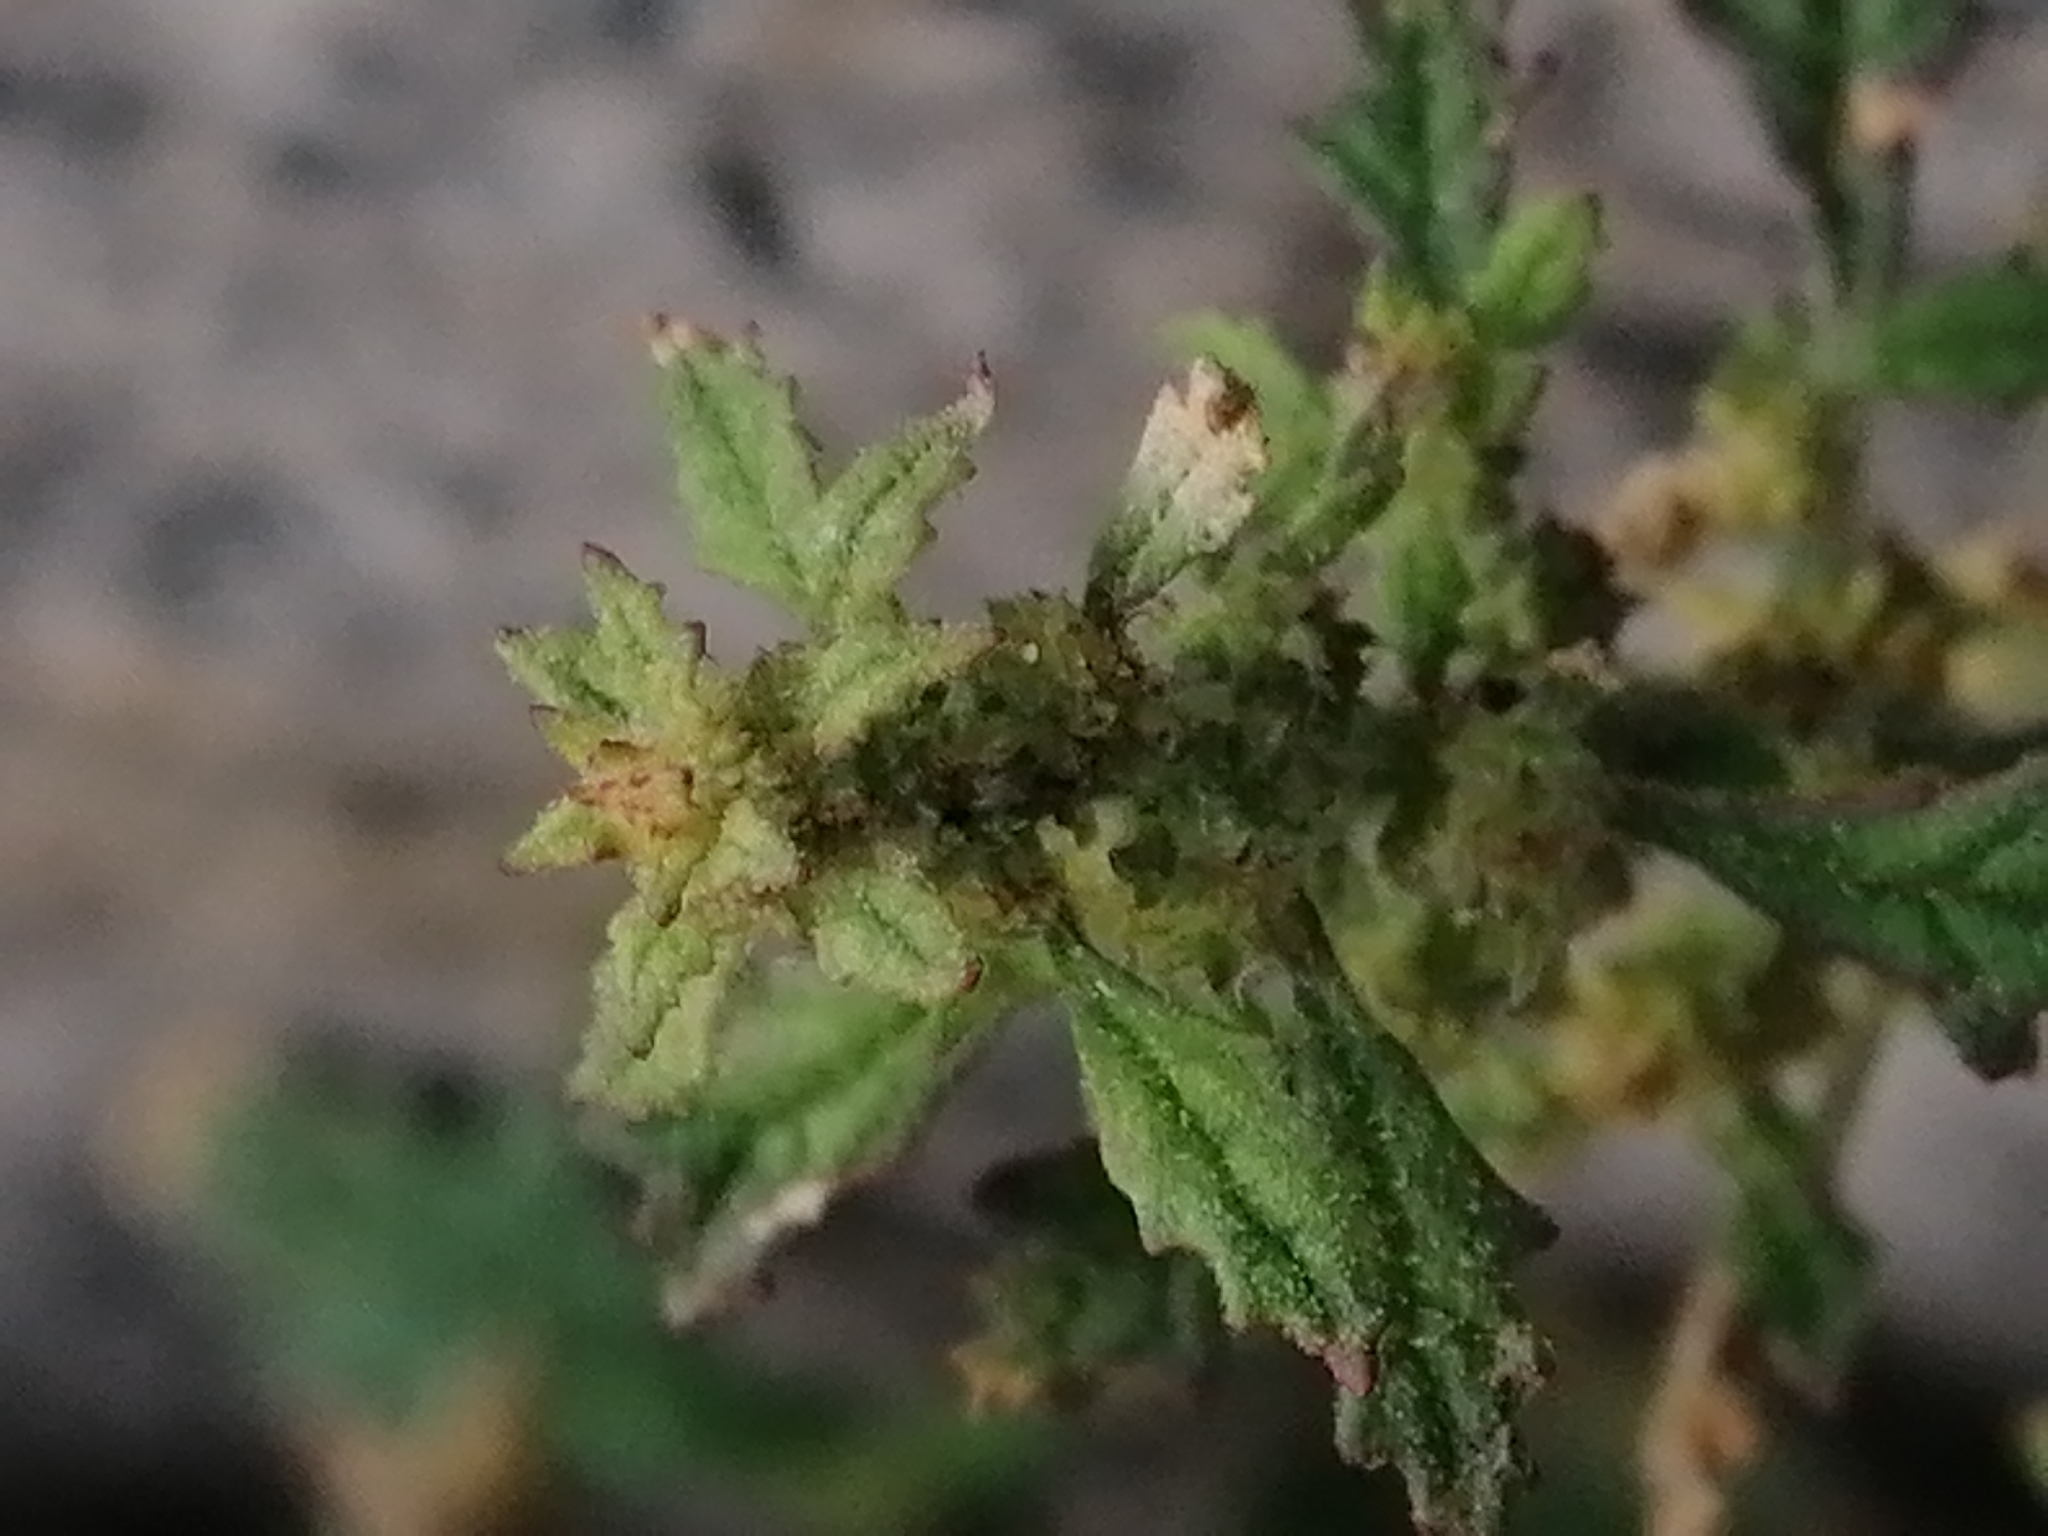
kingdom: Plantae
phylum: Tracheophyta
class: Magnoliopsida
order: Caryophyllales
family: Amaranthaceae
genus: Dysphania
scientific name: Dysphania pumilio
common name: Clammy goosefoot
